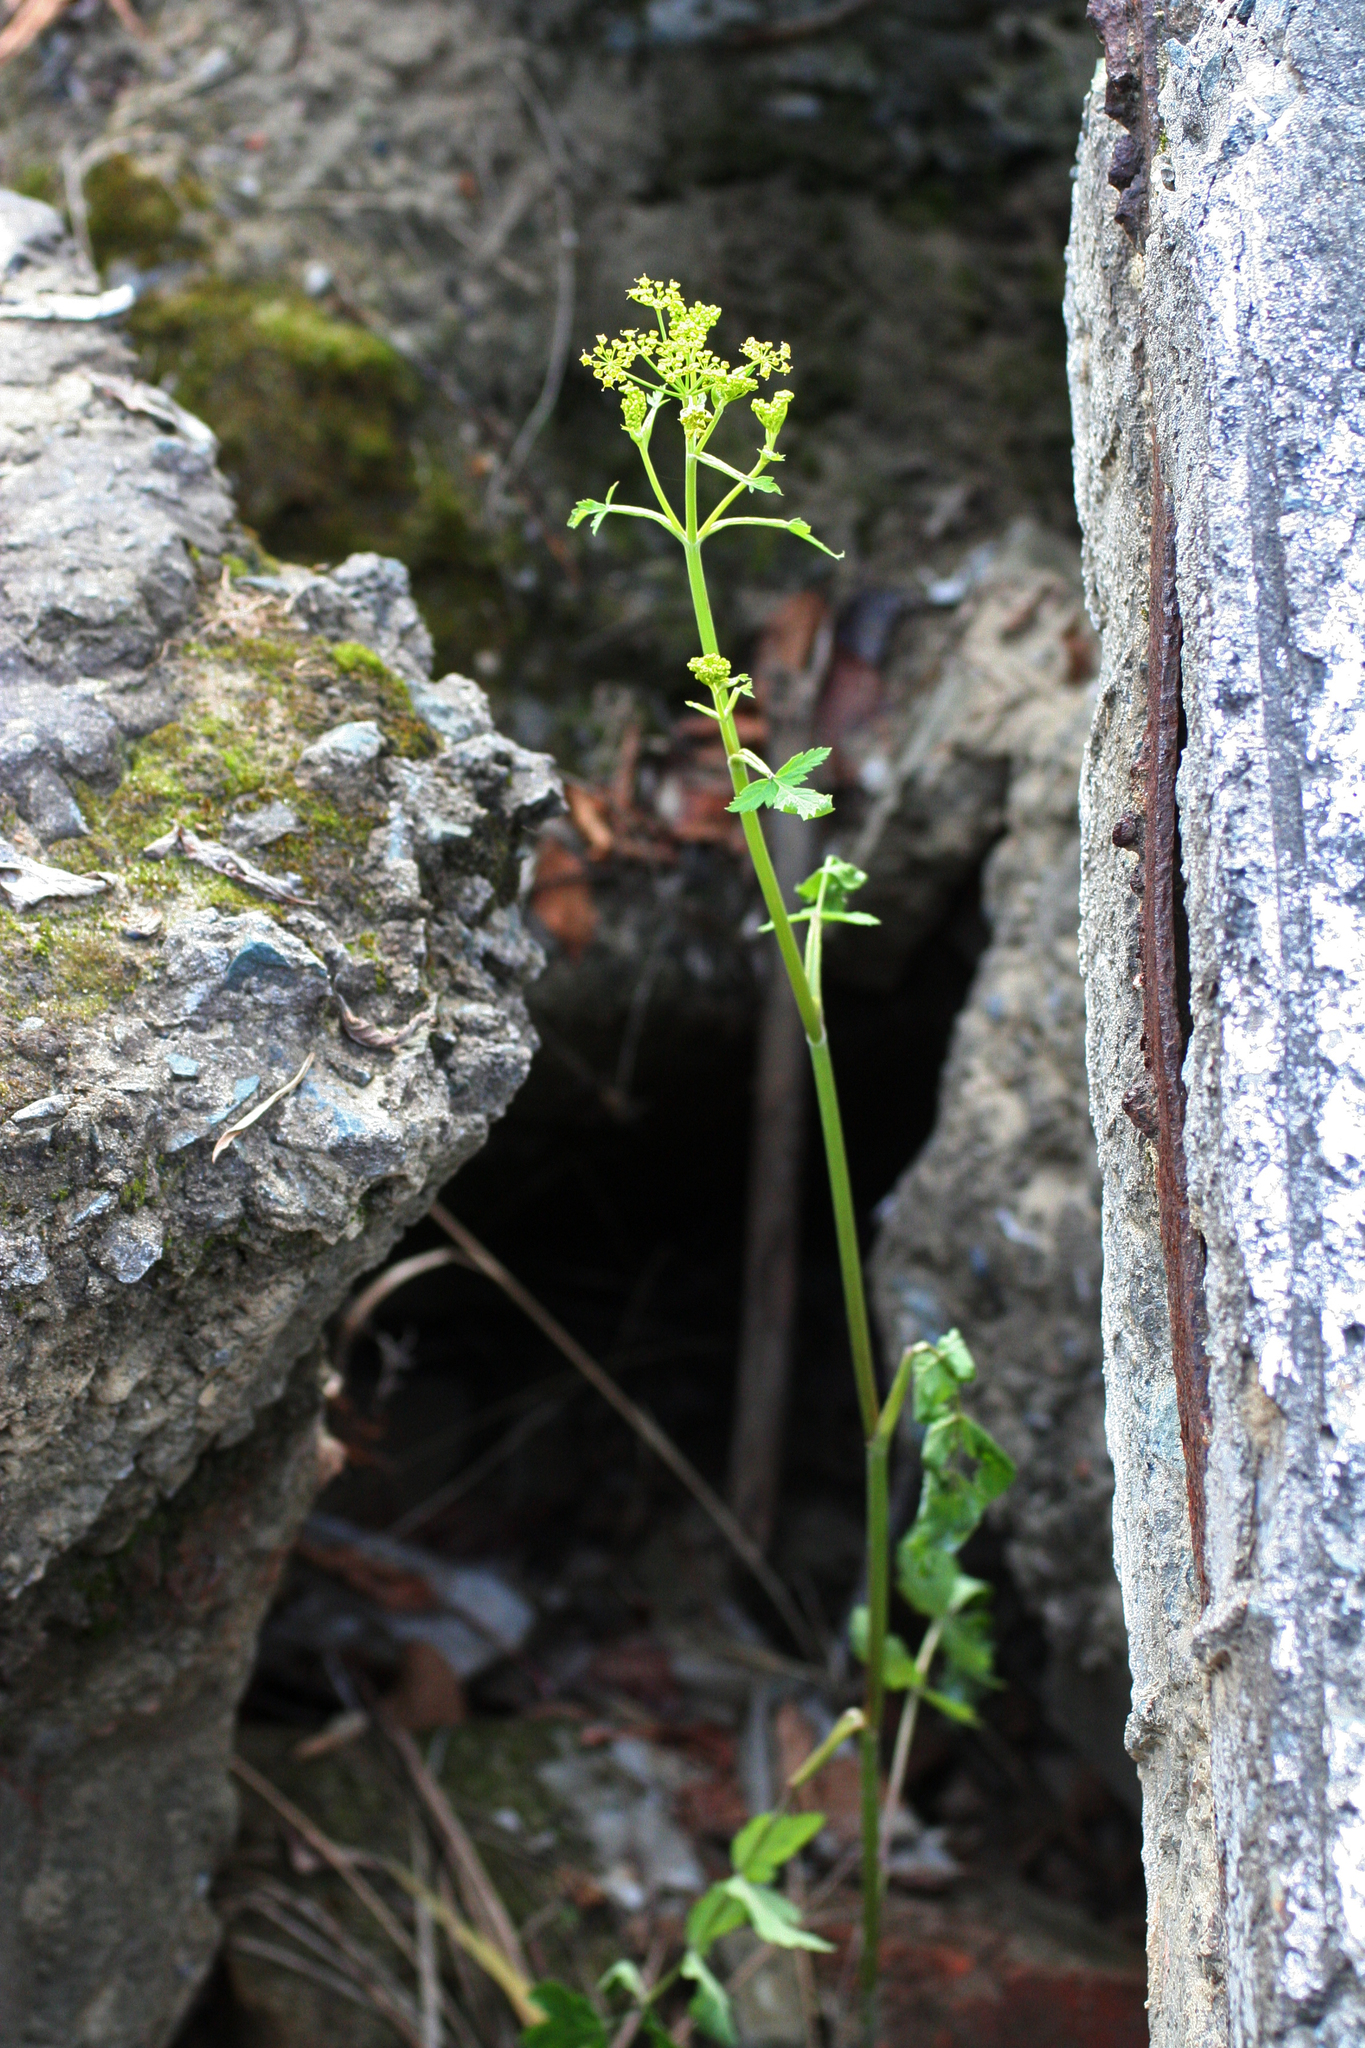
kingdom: Plantae
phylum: Tracheophyta
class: Magnoliopsida
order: Apiales
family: Apiaceae
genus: Pastinaca
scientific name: Pastinaca sativa
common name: Wild parsnip
